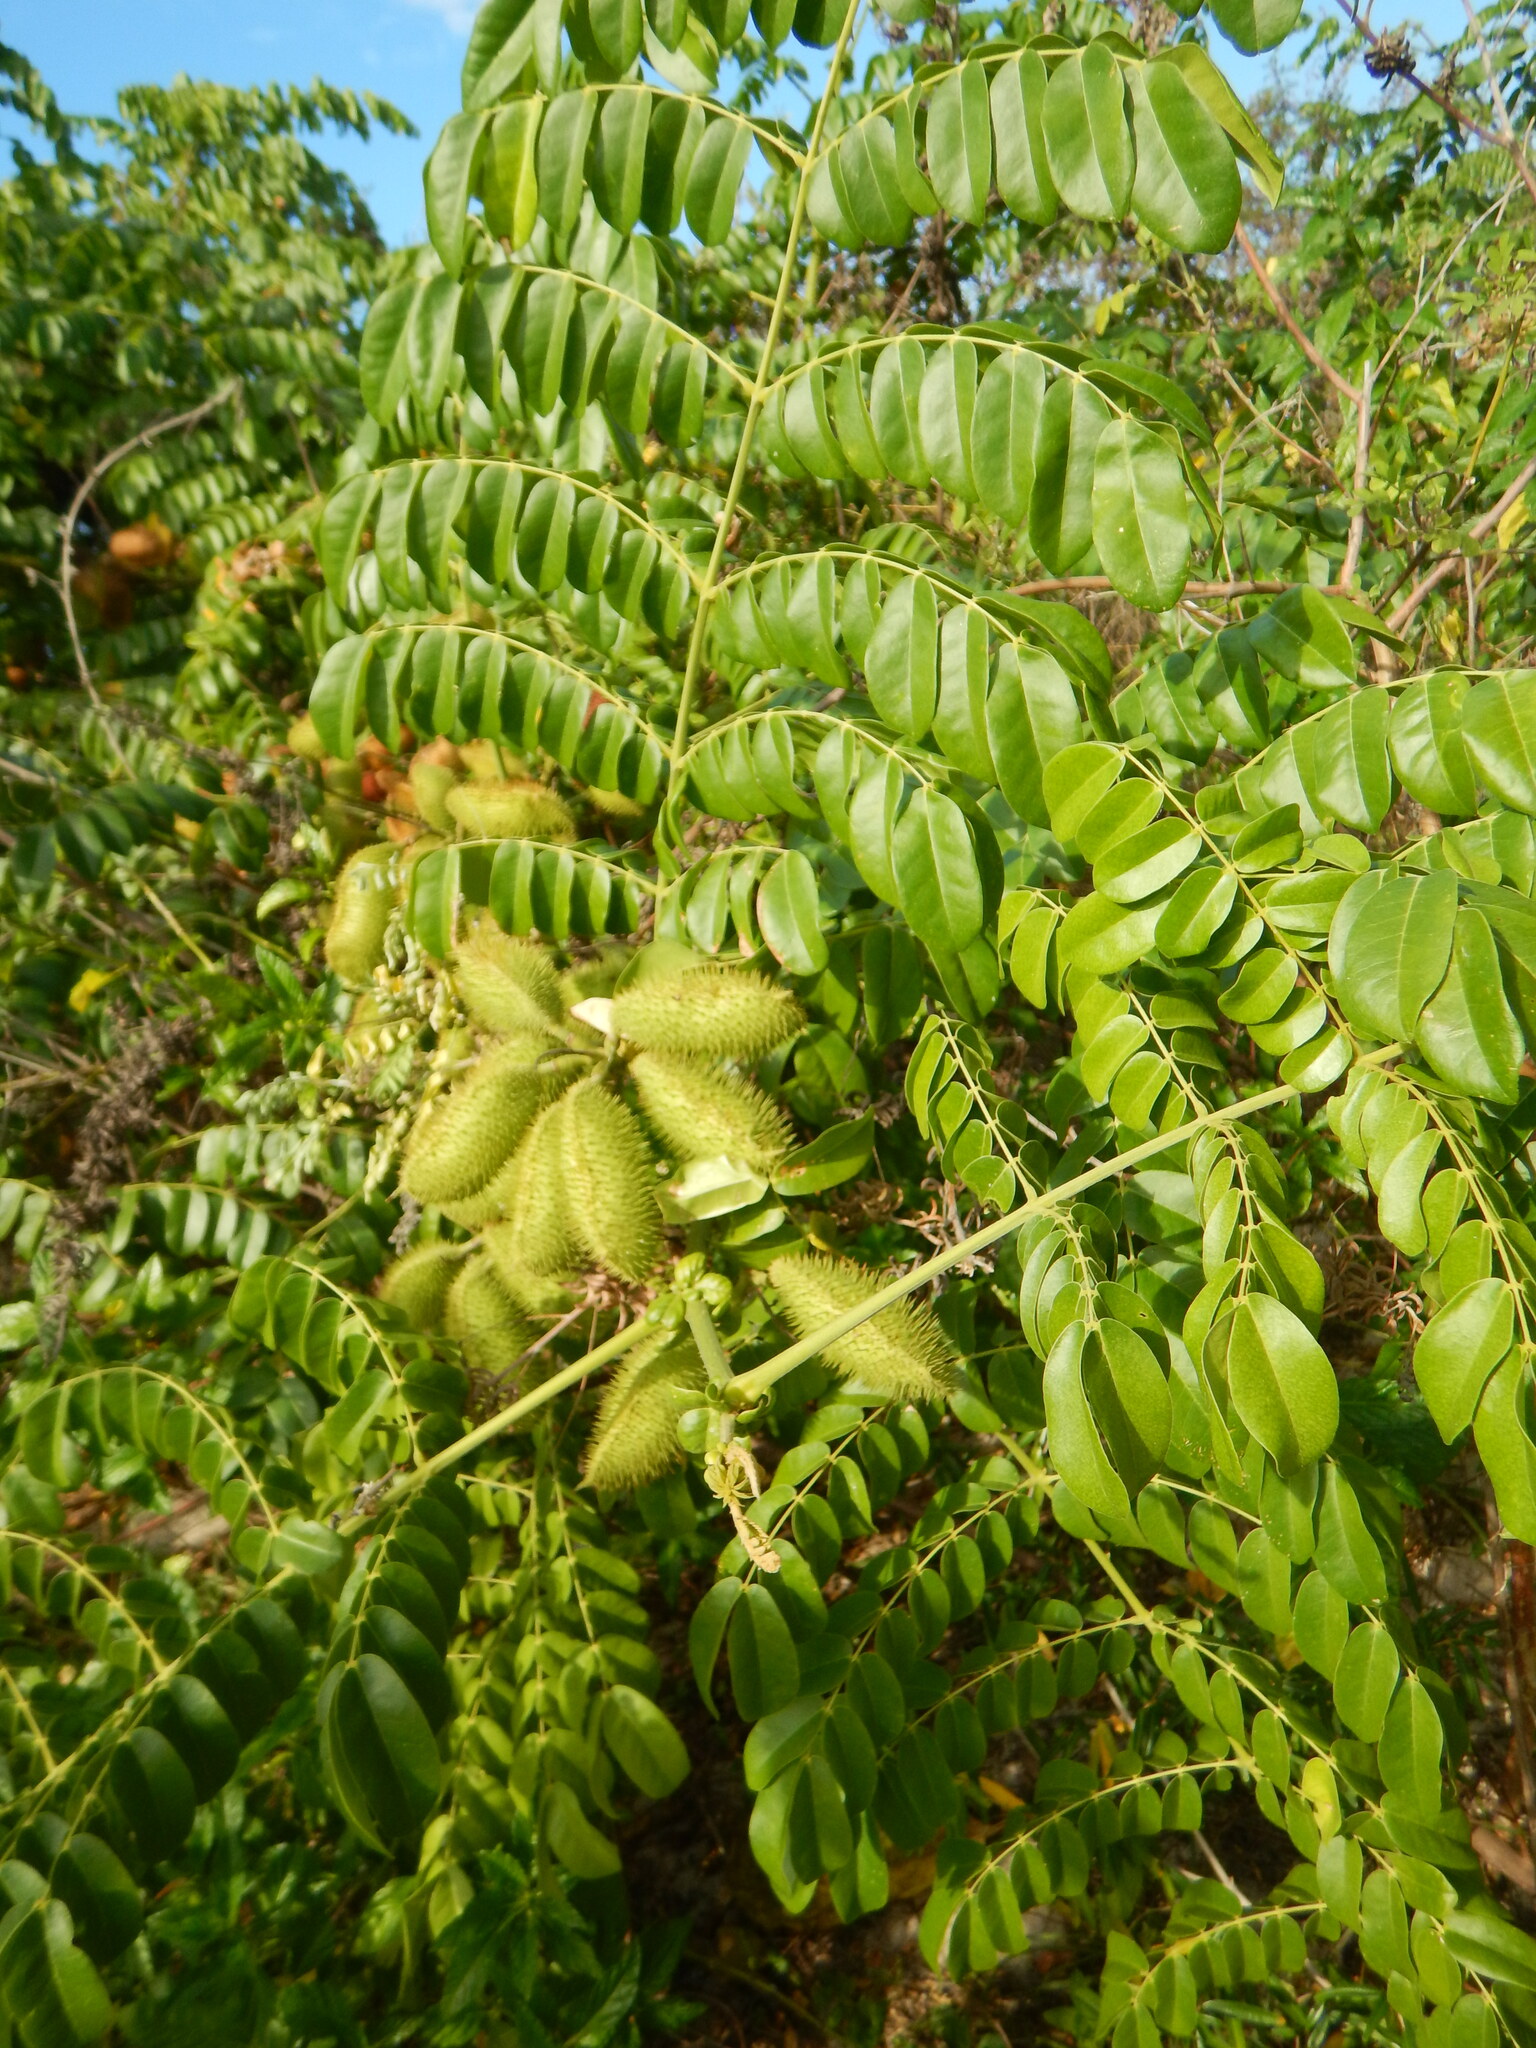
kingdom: Plantae
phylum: Tracheophyta
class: Magnoliopsida
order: Fabales
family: Fabaceae
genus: Guilandina
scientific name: Guilandina bonduc
